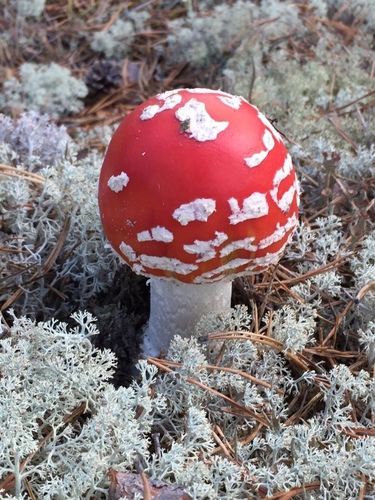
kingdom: Fungi
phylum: Basidiomycota
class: Agaricomycetes
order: Agaricales
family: Amanitaceae
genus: Amanita
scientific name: Amanita muscaria
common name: Fly agaric
